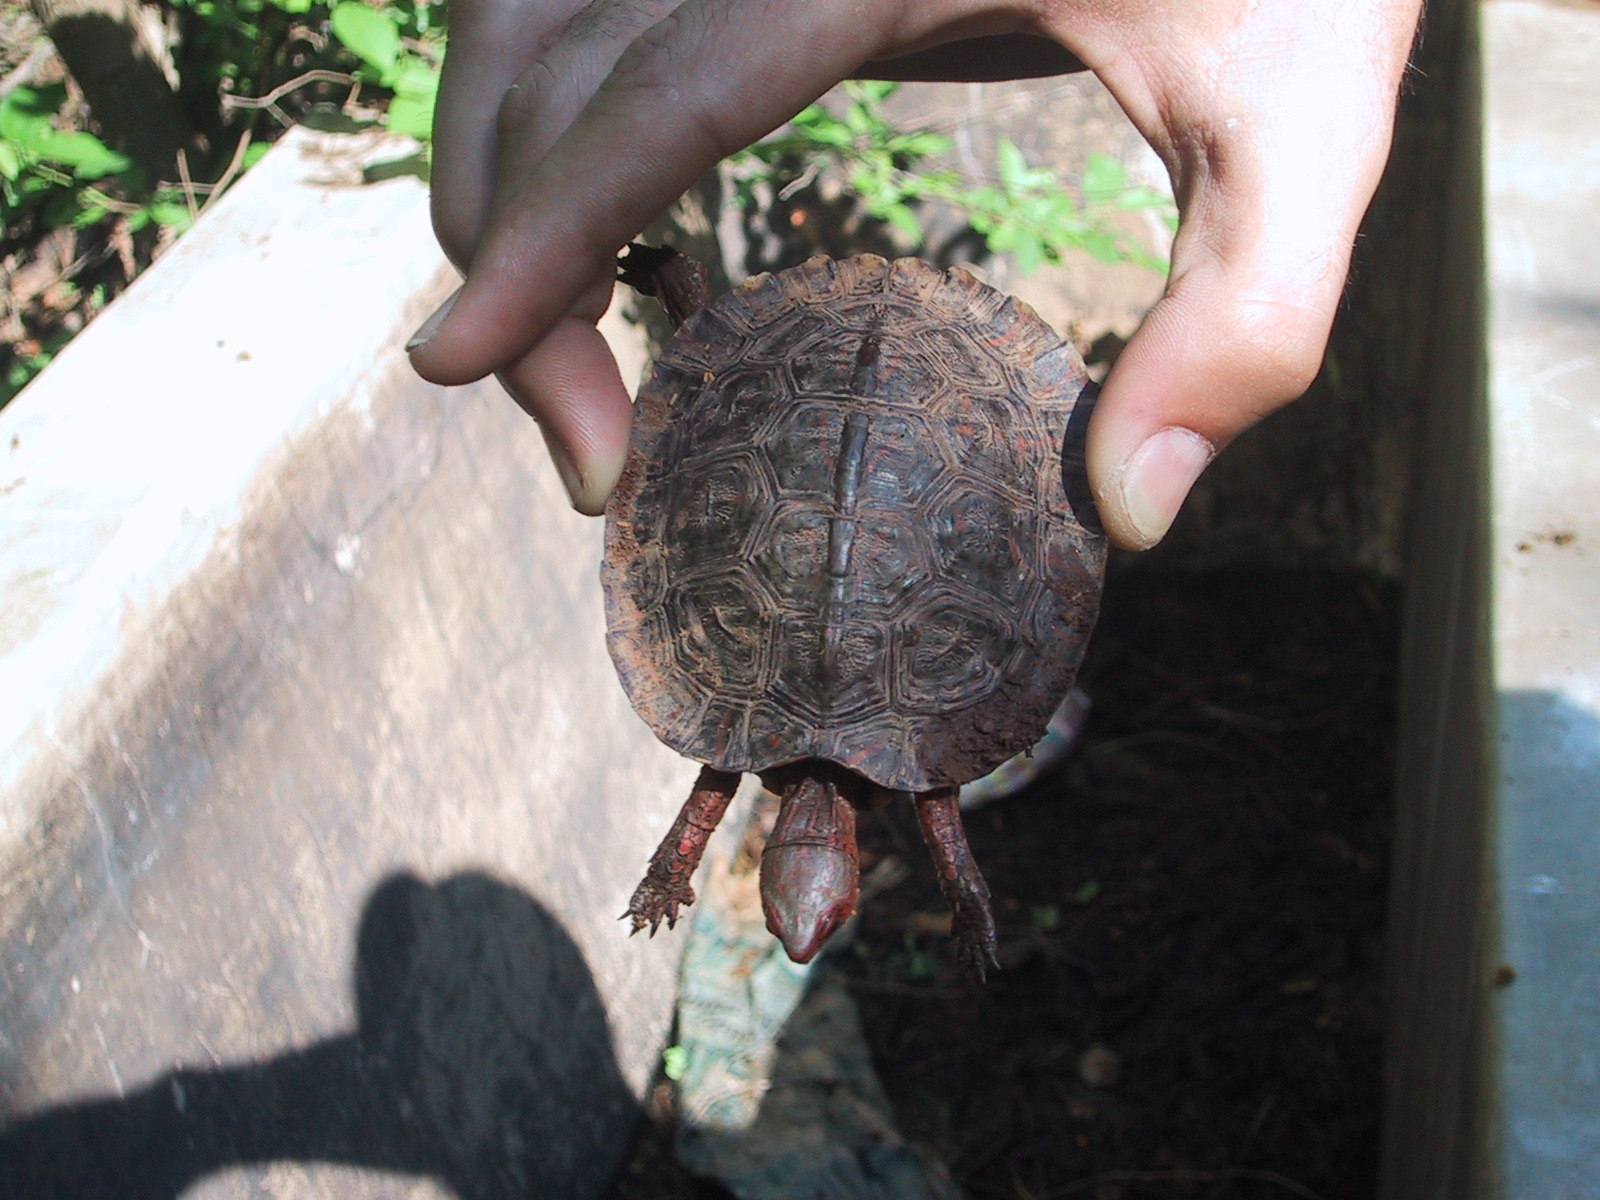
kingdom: Animalia
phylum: Chordata
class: Testudines
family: Geoemydidae
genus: Rhinoclemmys
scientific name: Rhinoclemmys pulcherrima
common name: Painted wood turtle
